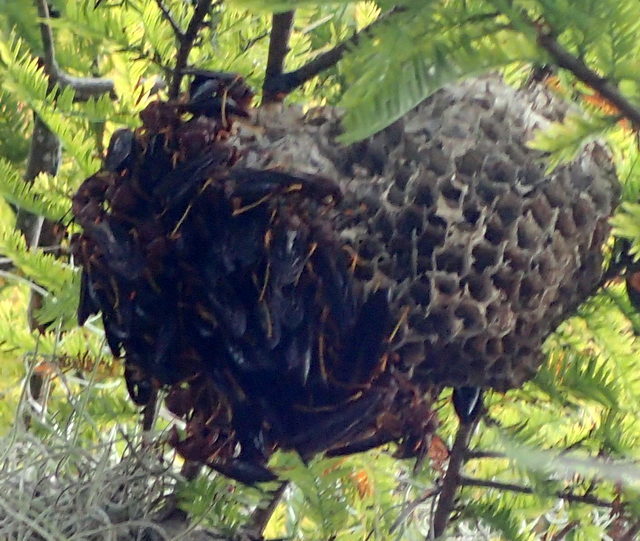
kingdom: Animalia
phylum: Arthropoda
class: Insecta
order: Hymenoptera
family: Eumenidae
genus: Polistes
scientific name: Polistes annularis
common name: Ringed paper wasp
